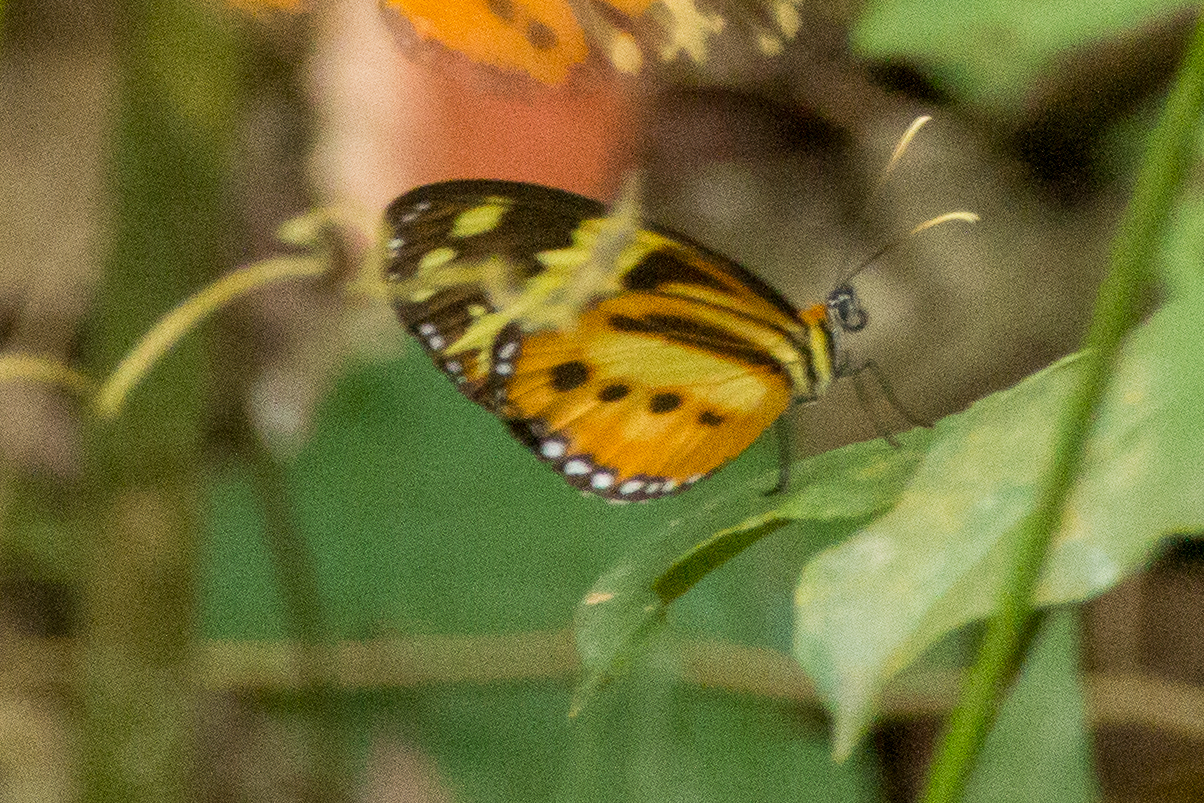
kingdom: Animalia
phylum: Arthropoda
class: Insecta
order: Lepidoptera
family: Nymphalidae
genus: Tithorea
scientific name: Tithorea harmonia
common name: Harmonia tigerwing
